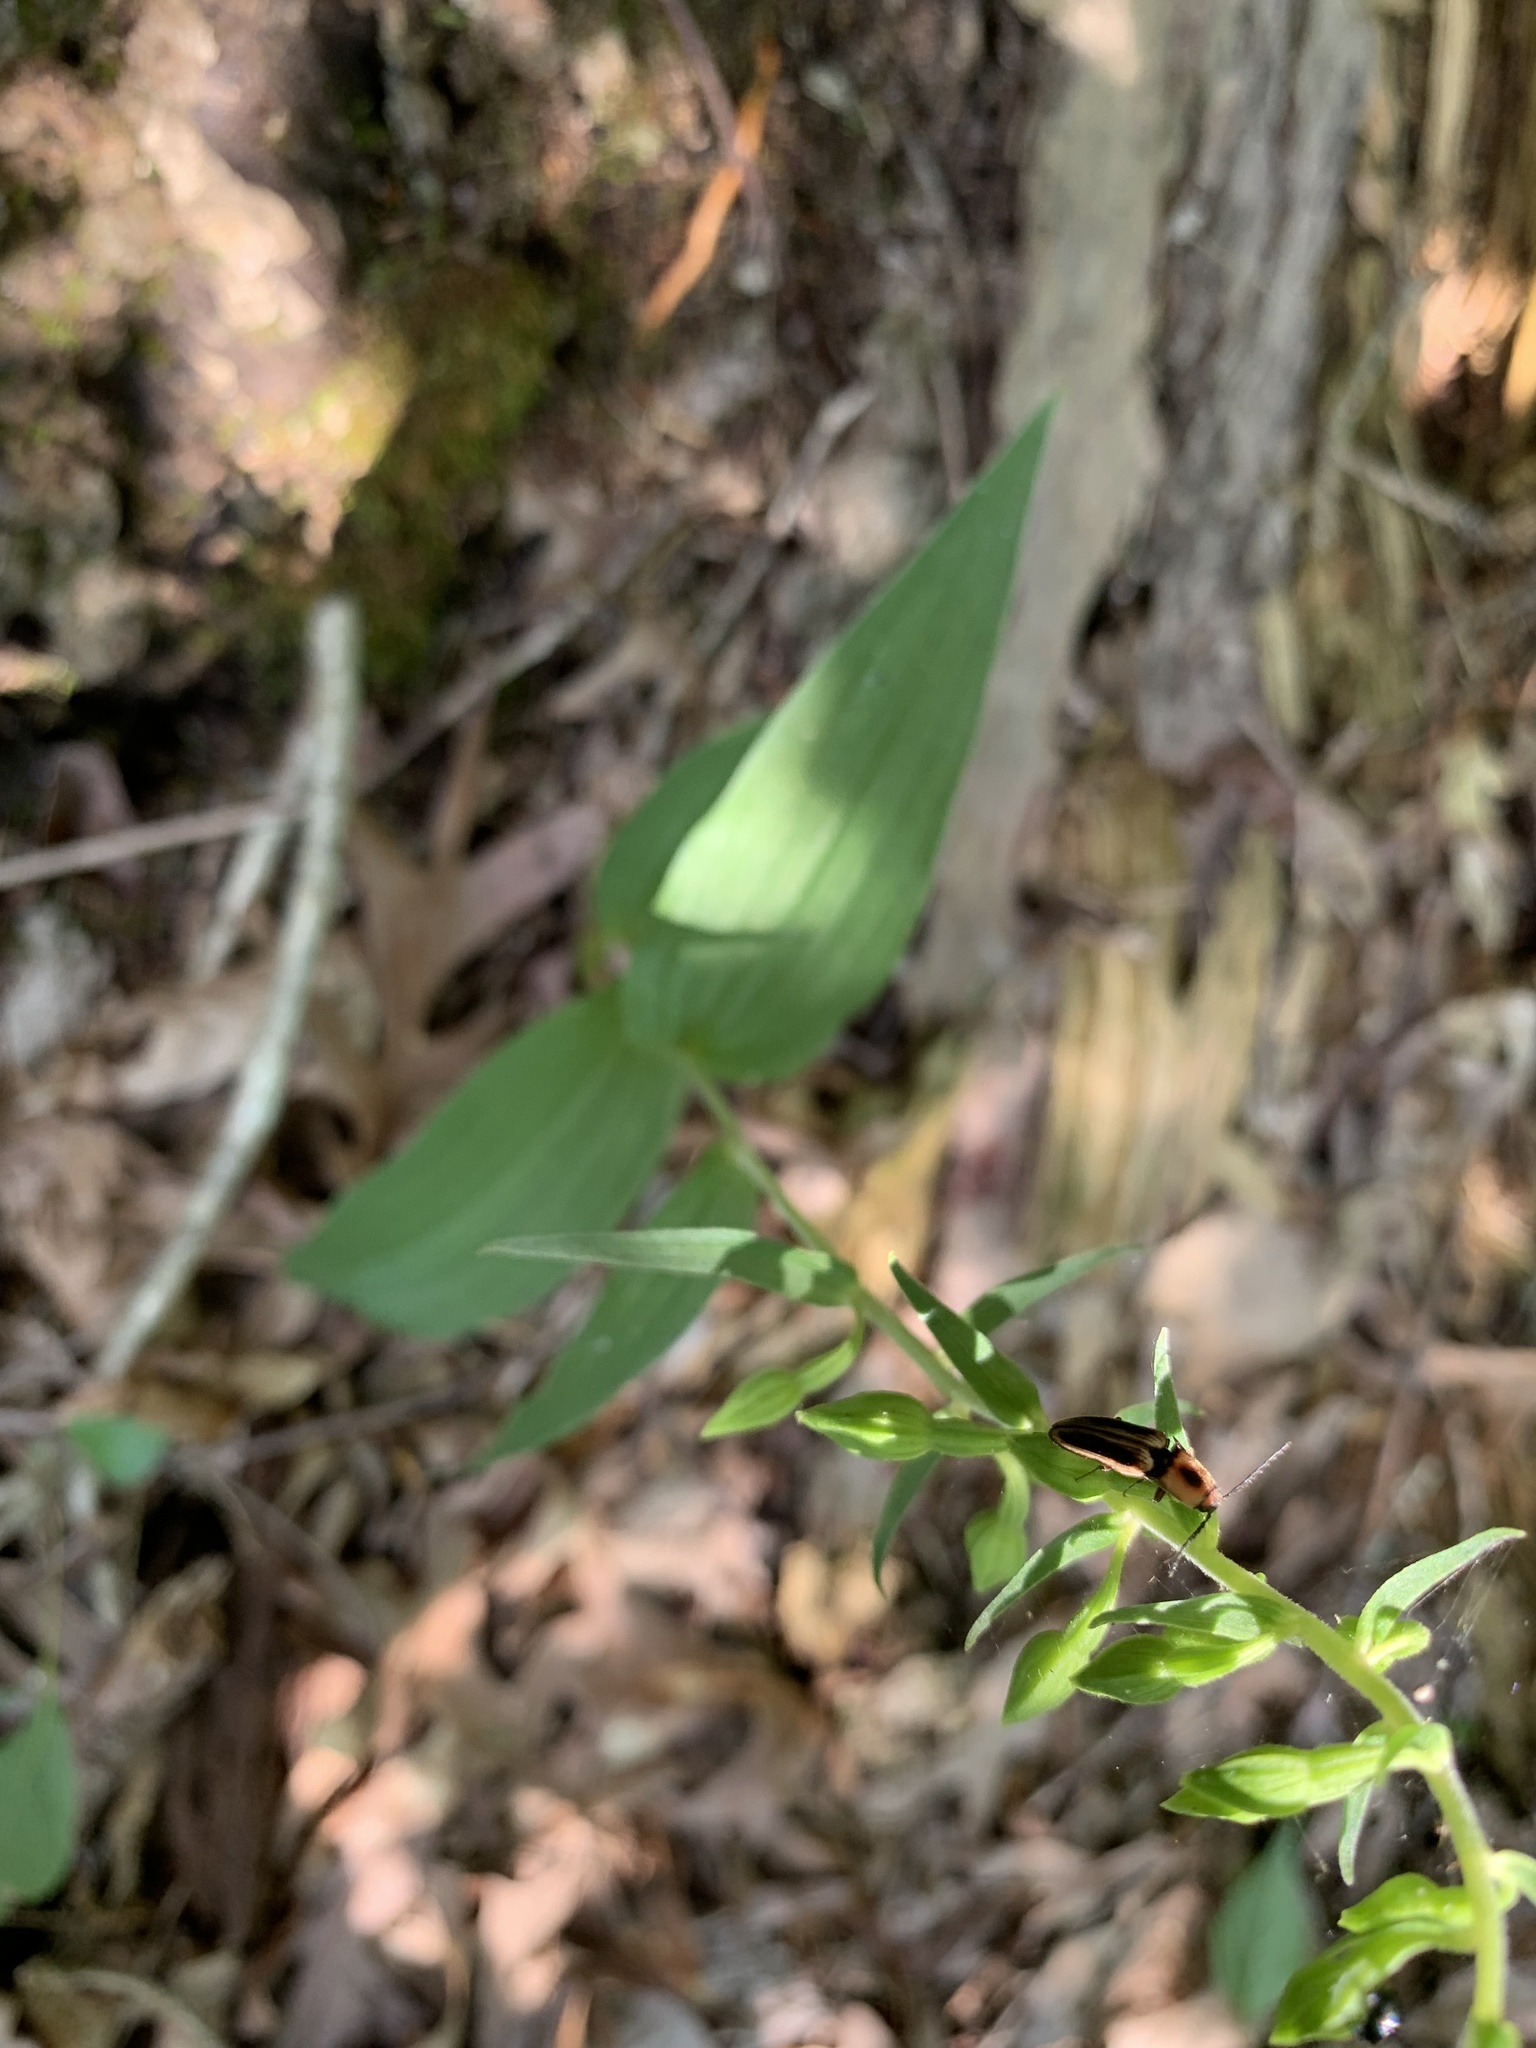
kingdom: Animalia
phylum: Arthropoda
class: Insecta
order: Coleoptera
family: Elateridae
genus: Megapenthes
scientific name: Megapenthes
